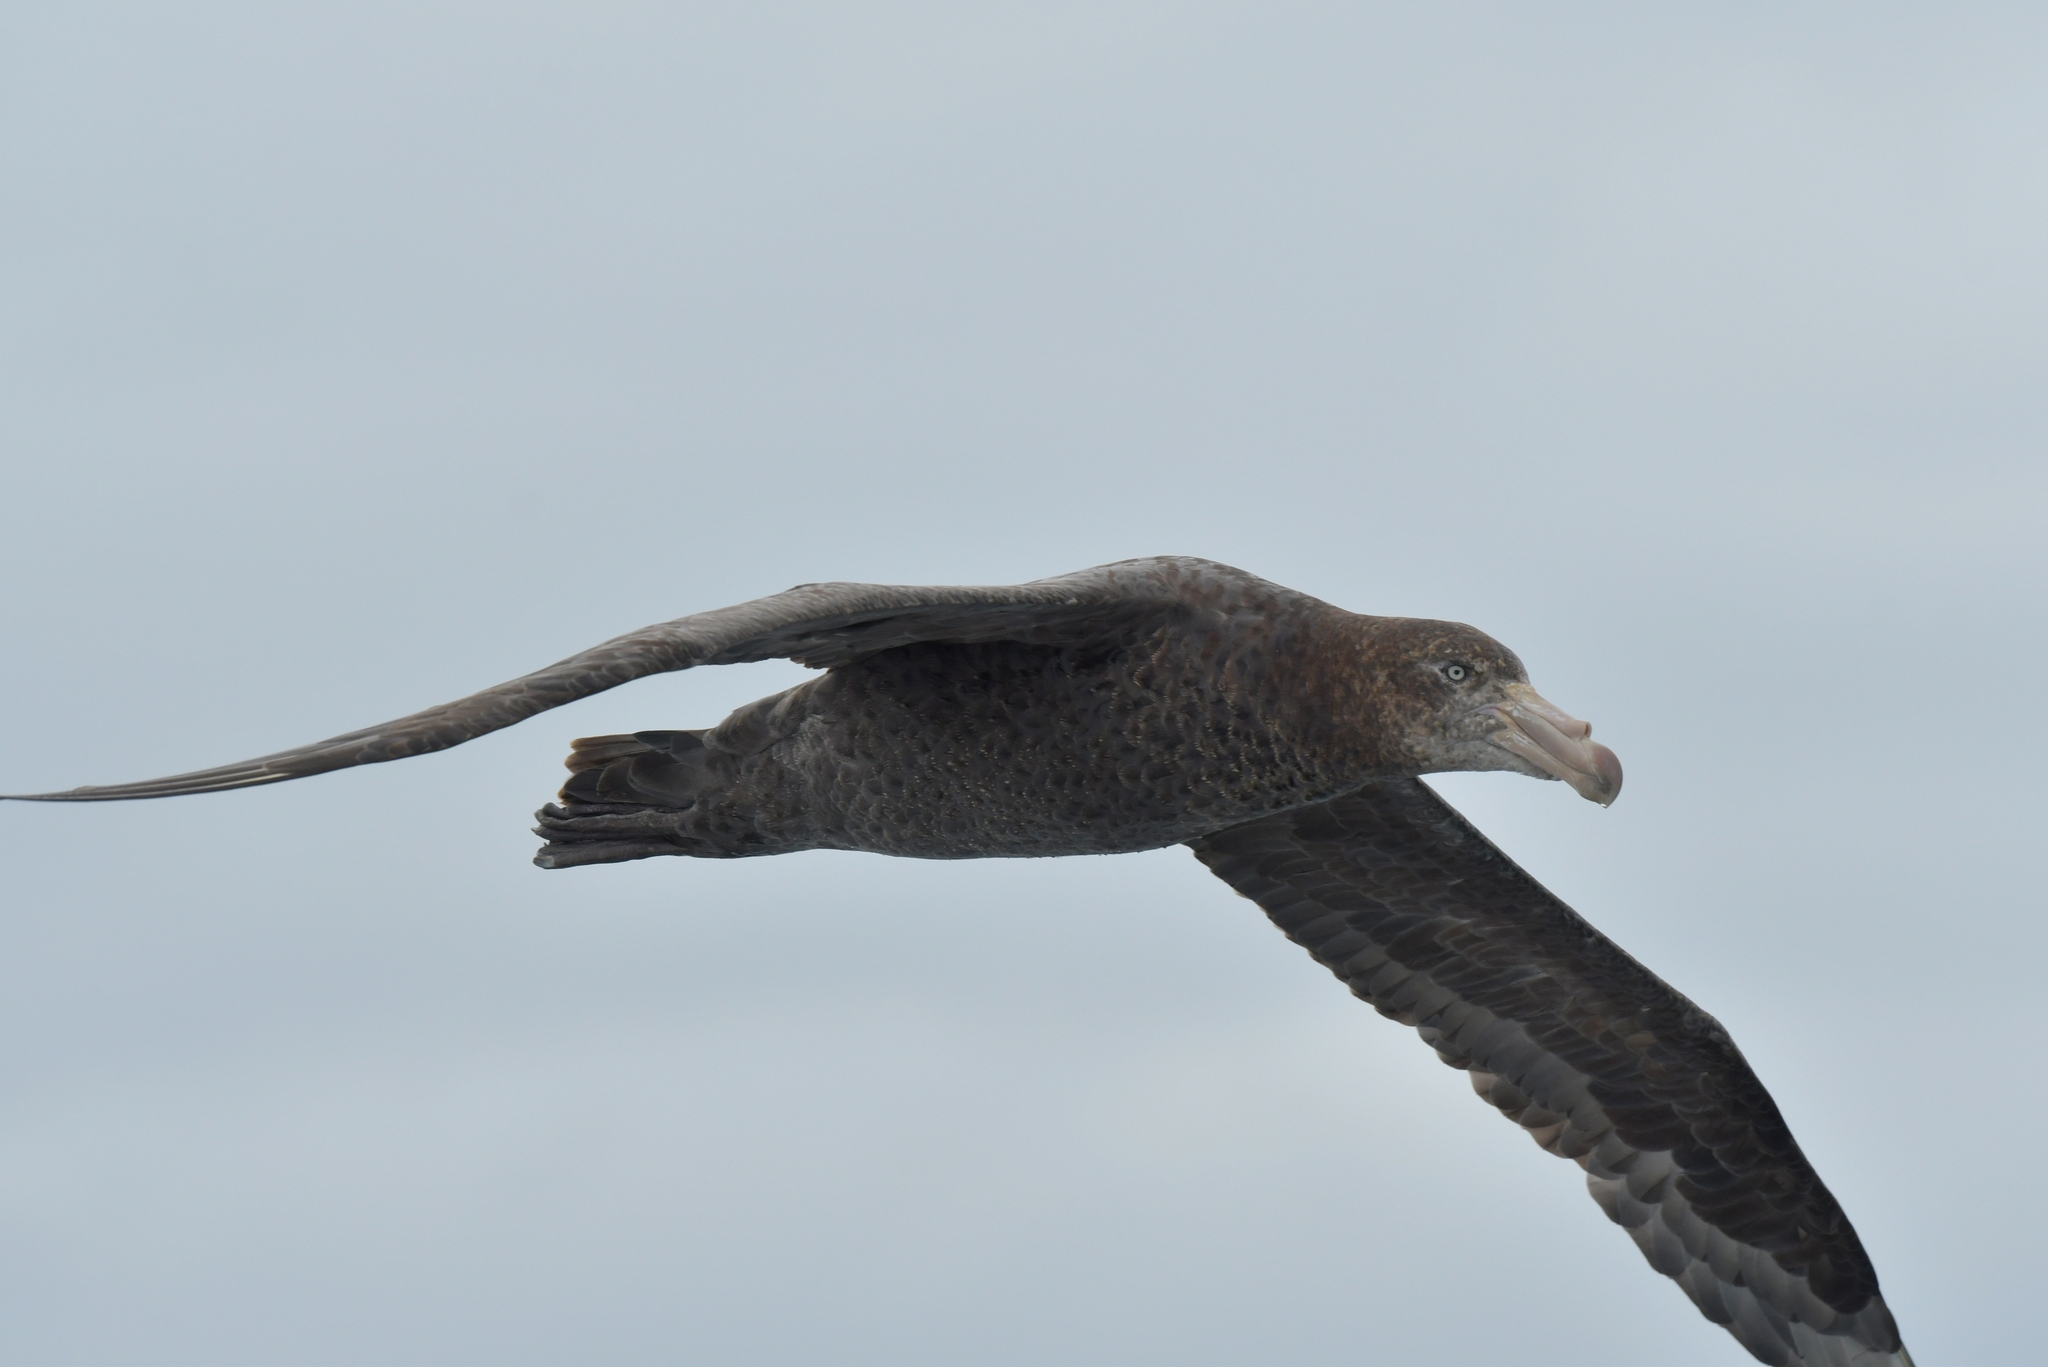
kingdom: Animalia
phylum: Chordata
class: Aves
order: Procellariiformes
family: Procellariidae
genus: Macronectes
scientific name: Macronectes halli
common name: Northern giant petrel
